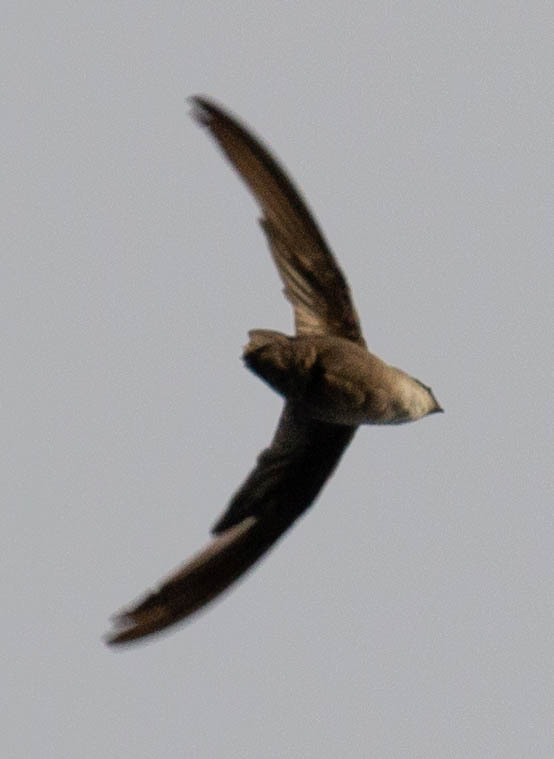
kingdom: Animalia
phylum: Chordata
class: Aves
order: Apodiformes
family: Apodidae
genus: Chaetura
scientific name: Chaetura pelagica
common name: Chimney swift
